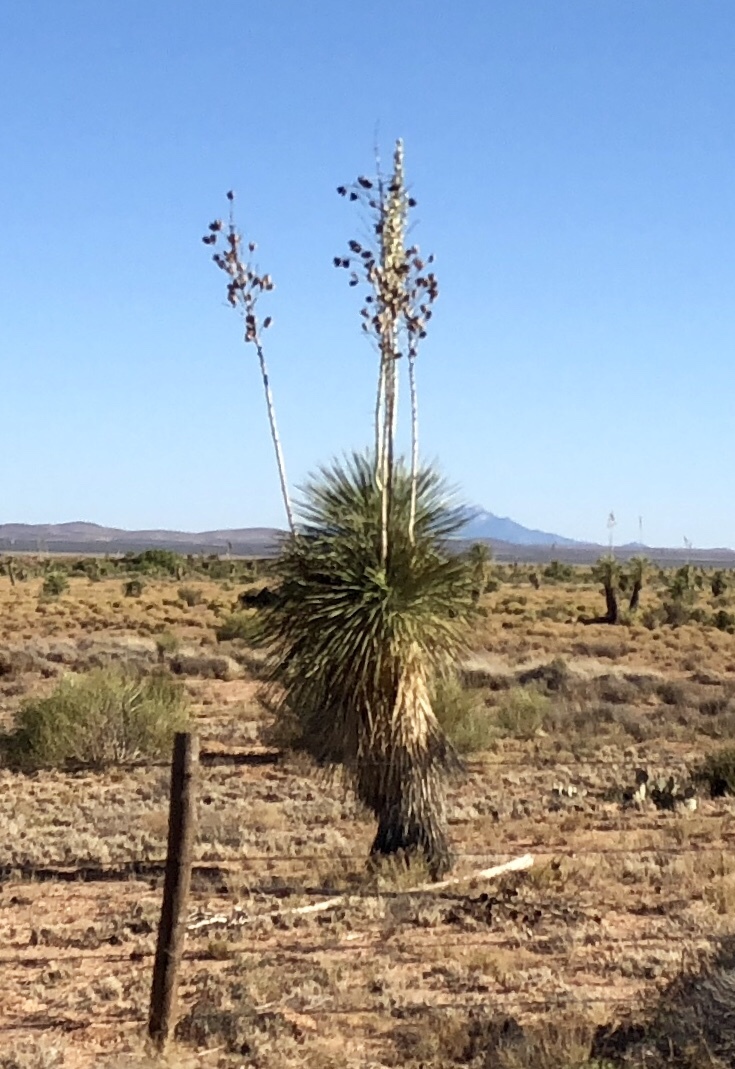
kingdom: Plantae
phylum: Tracheophyta
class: Liliopsida
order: Asparagales
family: Asparagaceae
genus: Yucca
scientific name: Yucca elata
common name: Palmella
